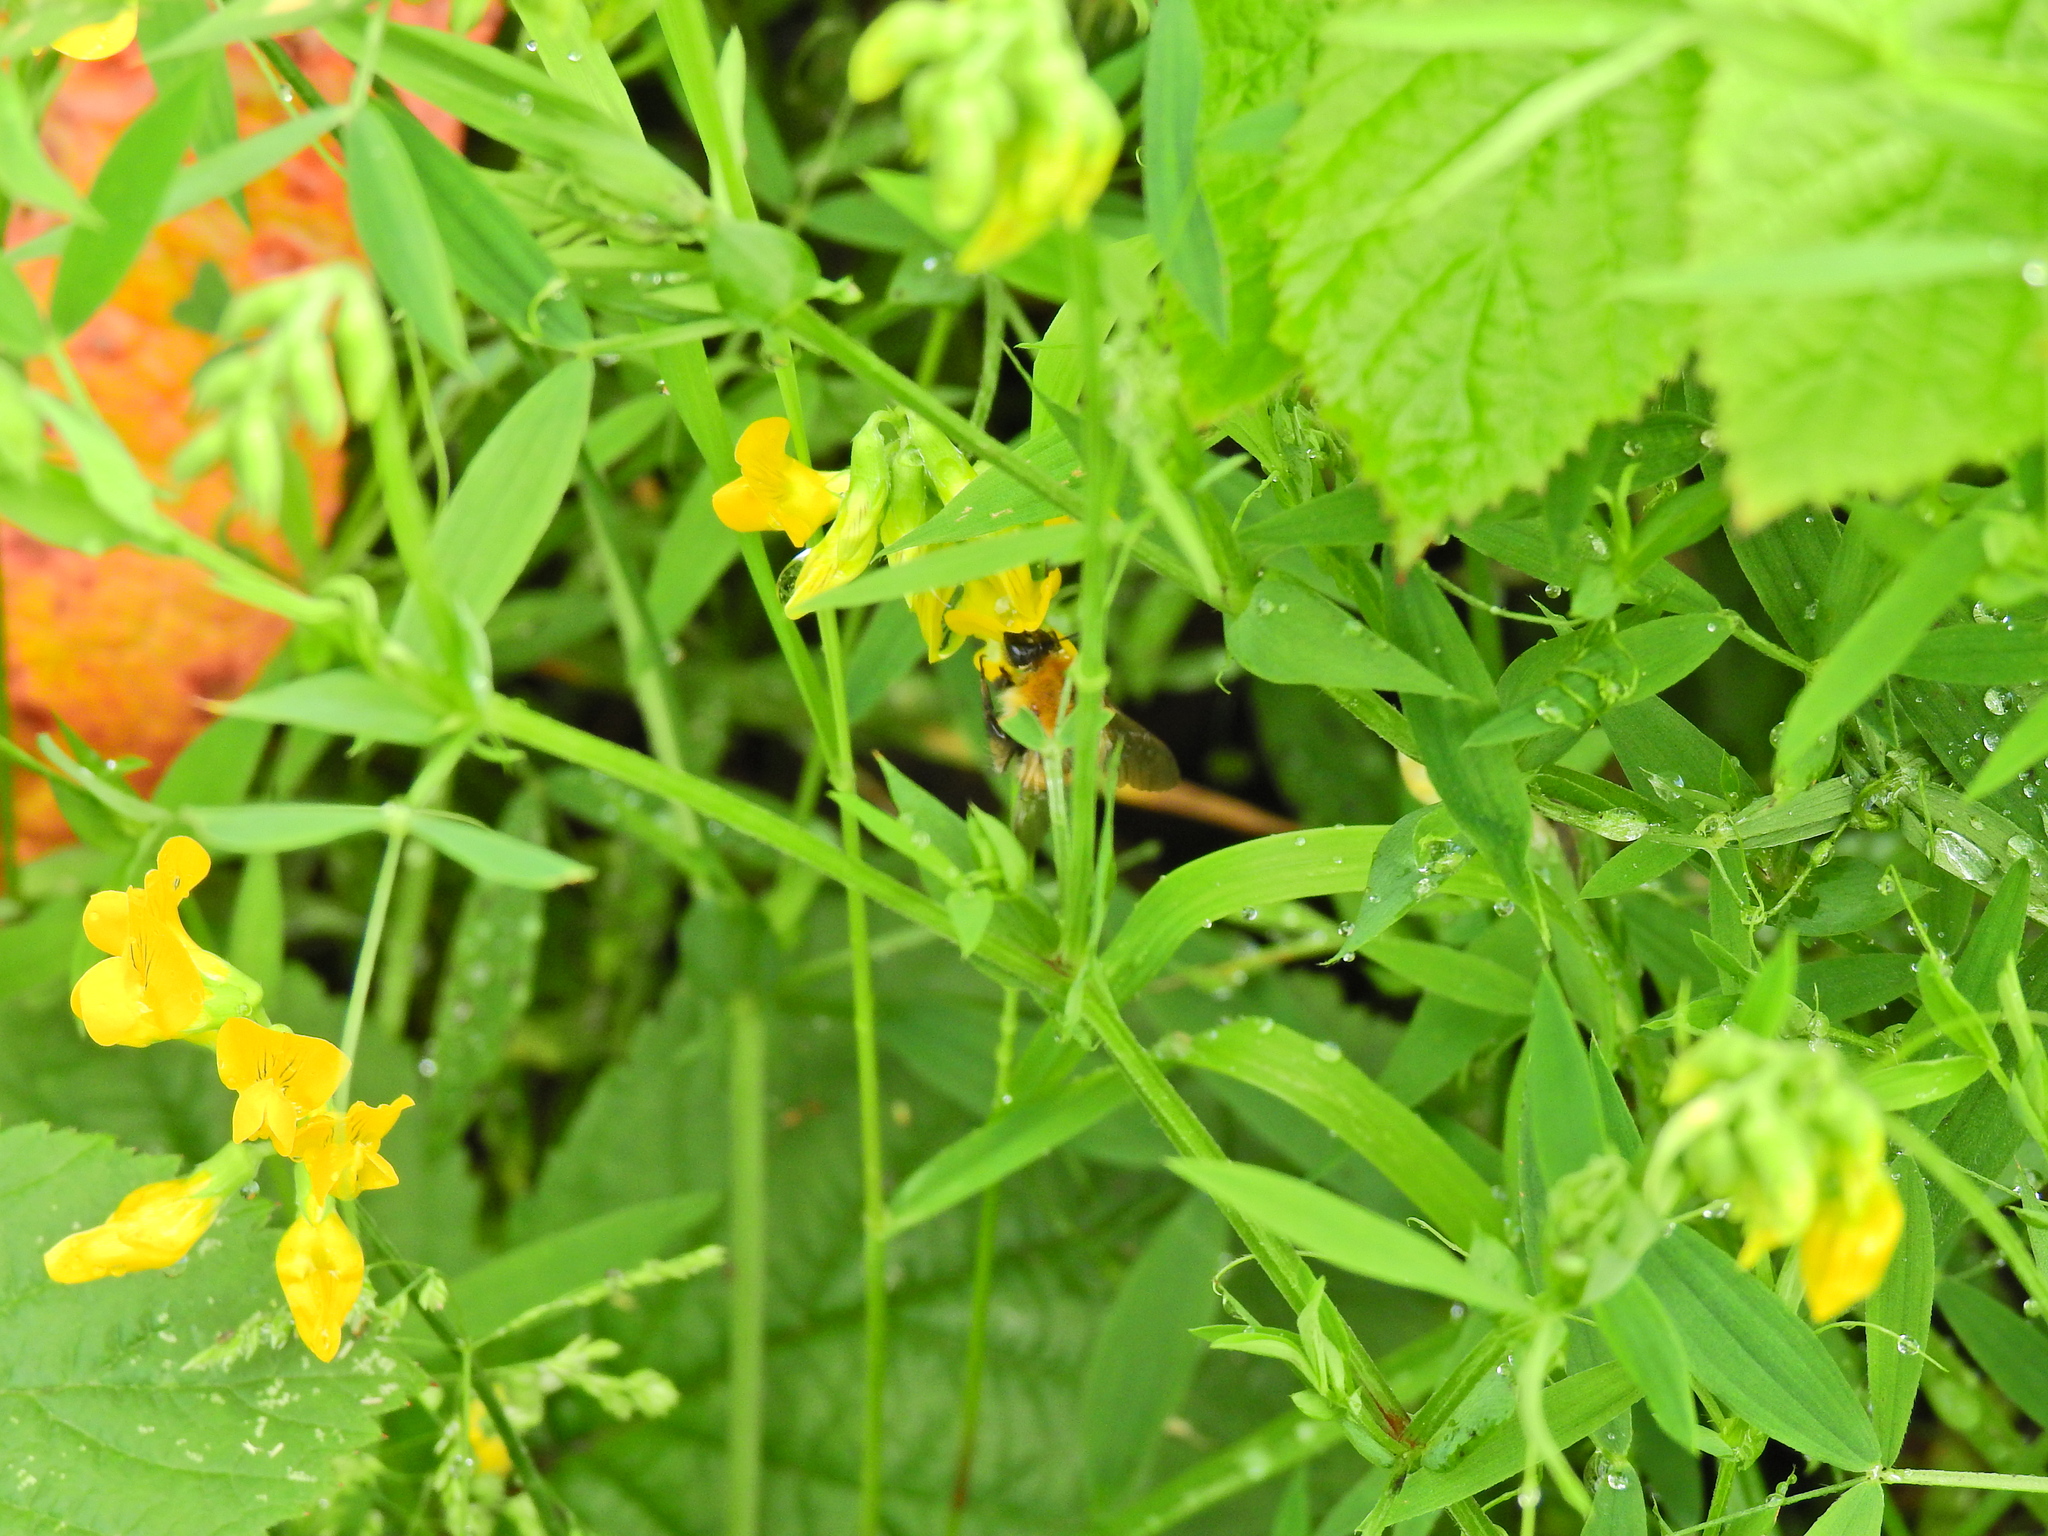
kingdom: Plantae
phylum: Tracheophyta
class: Magnoliopsida
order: Fabales
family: Fabaceae
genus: Lathyrus
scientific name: Lathyrus pratensis
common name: Meadow vetchling
